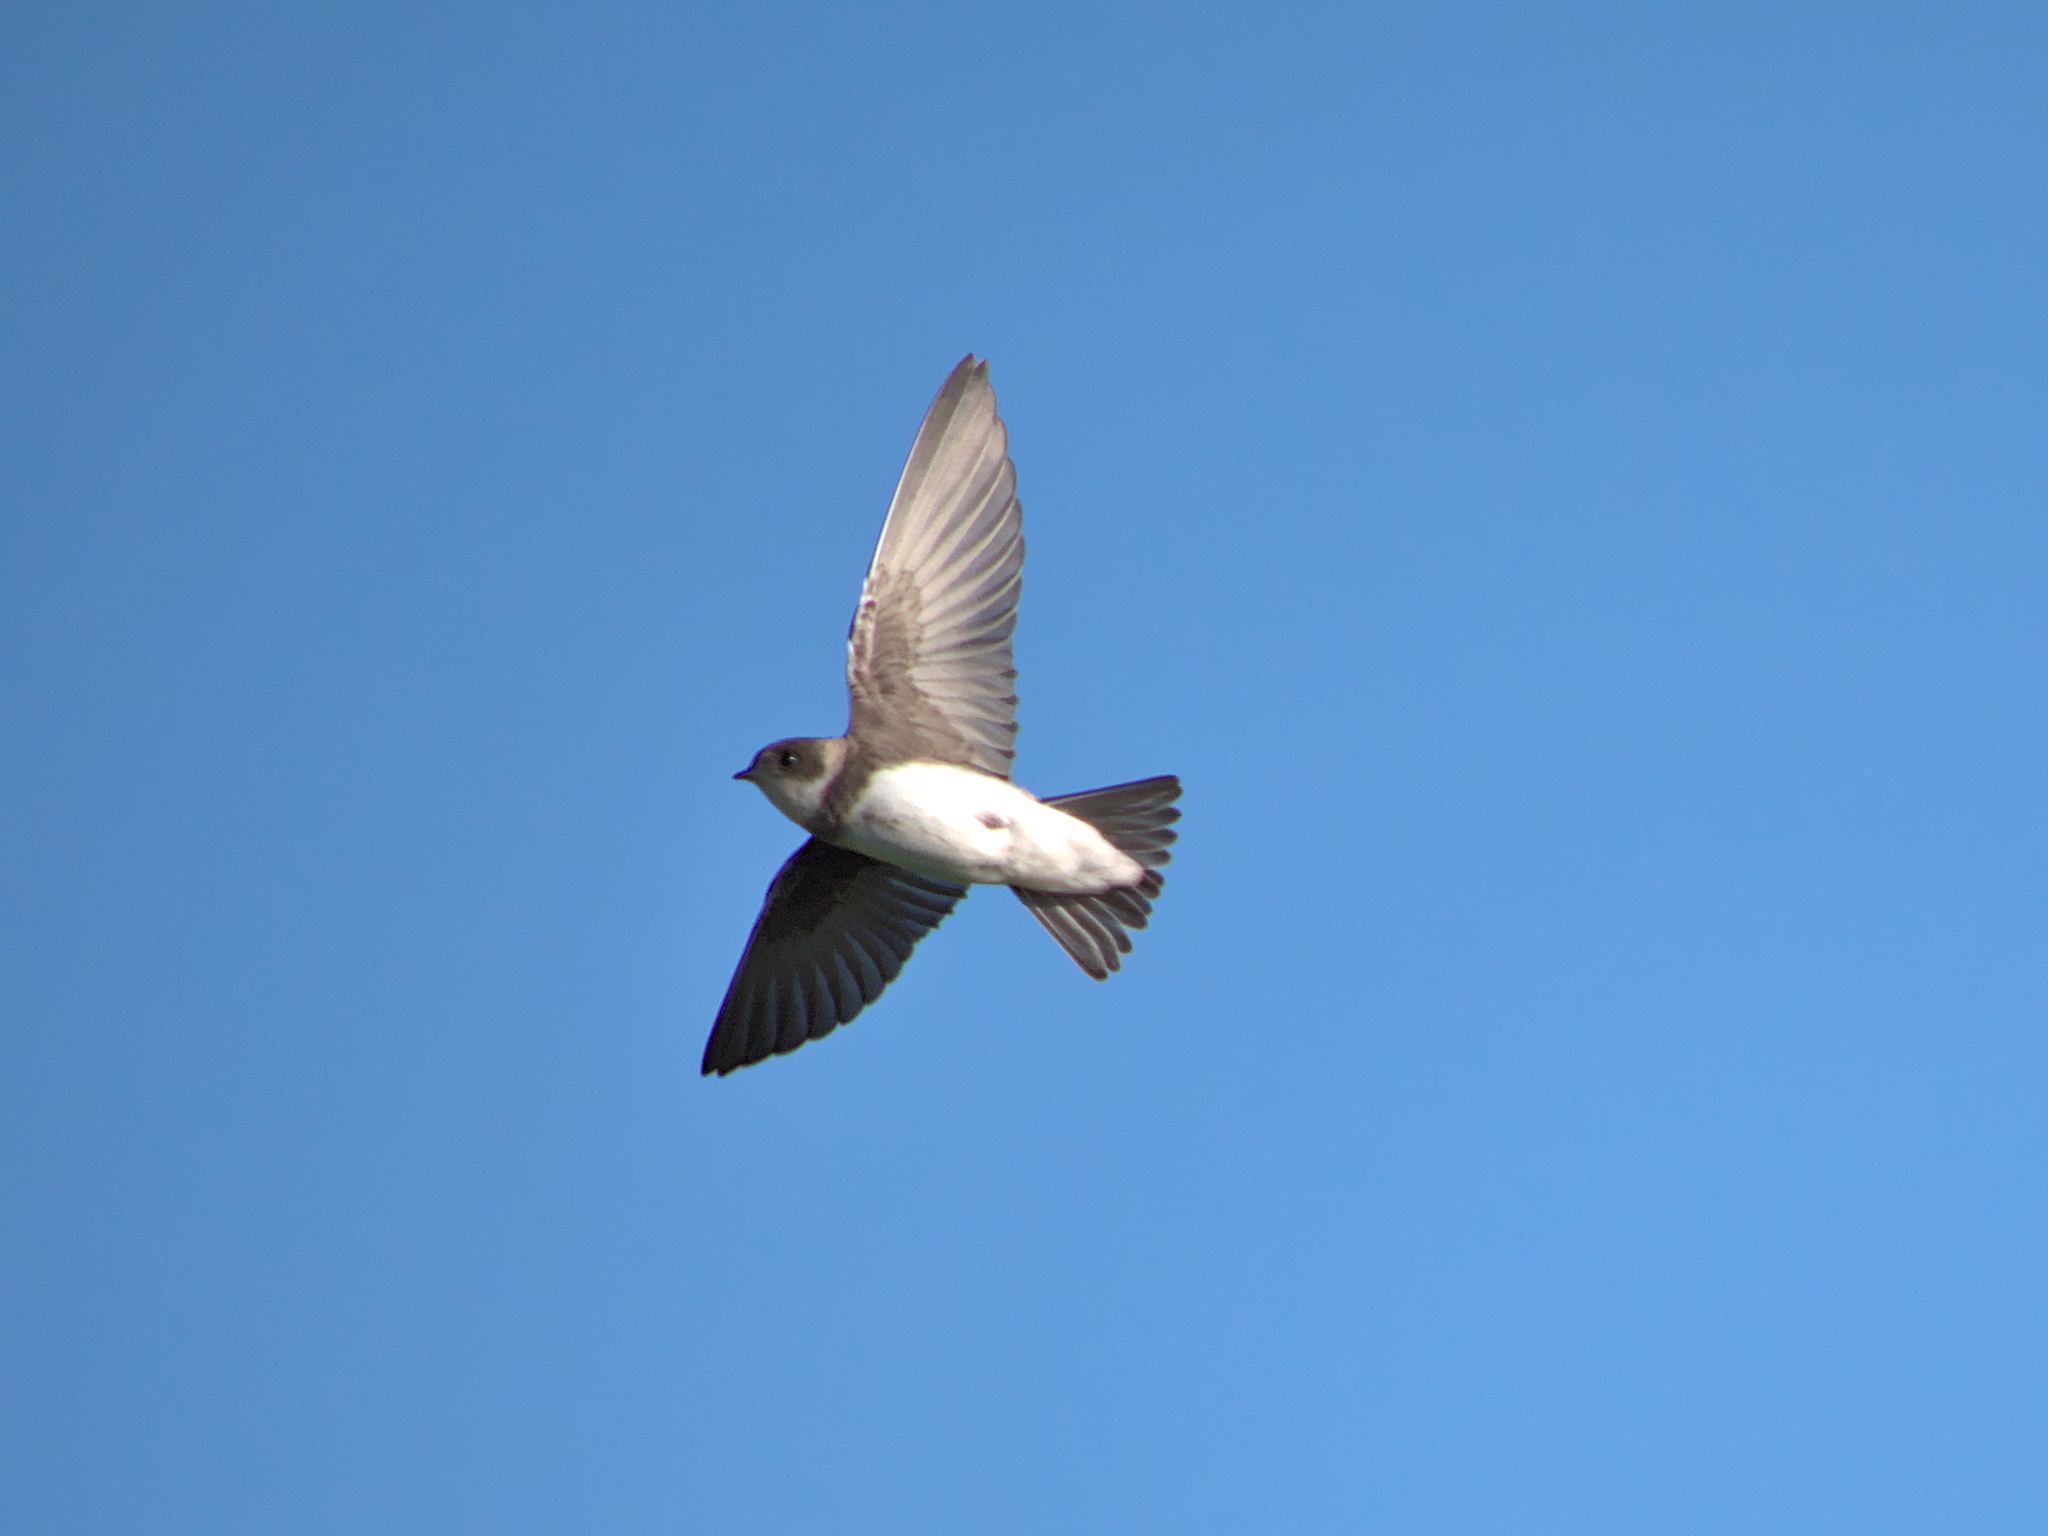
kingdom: Animalia
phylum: Chordata
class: Aves
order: Passeriformes
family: Hirundinidae
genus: Riparia
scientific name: Riparia riparia
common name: Sand martin
